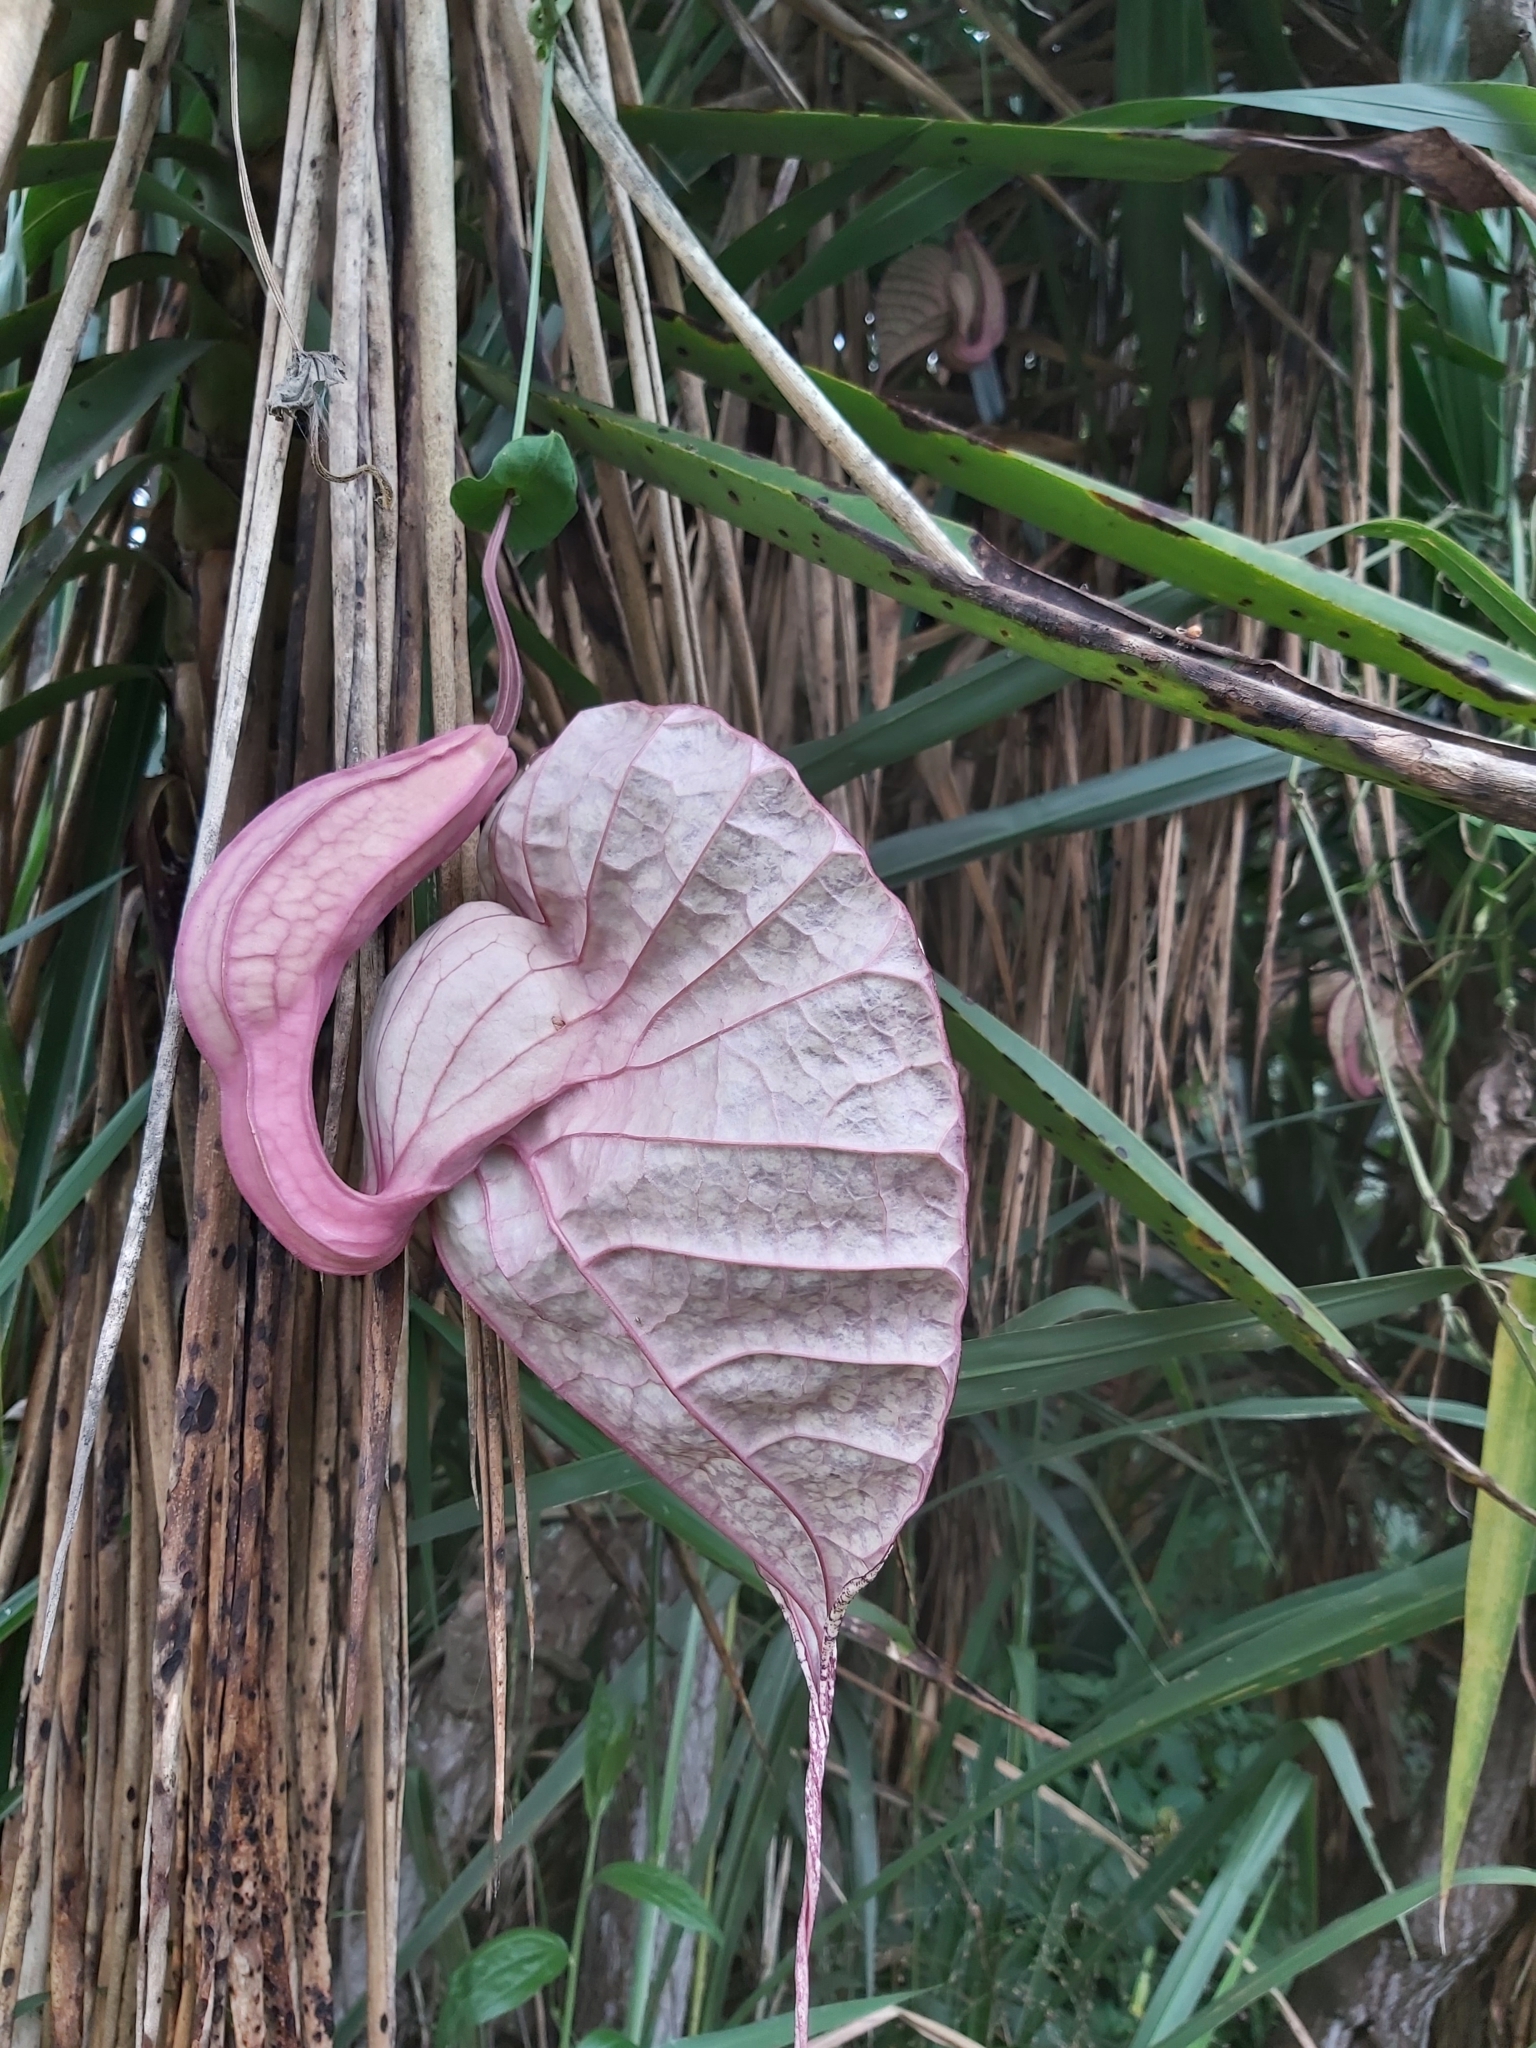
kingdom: Plantae
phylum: Tracheophyta
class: Magnoliopsida
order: Piperales
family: Aristolochiaceae
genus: Aristolochia
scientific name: Aristolochia grandiflora
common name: Pelicanflower
